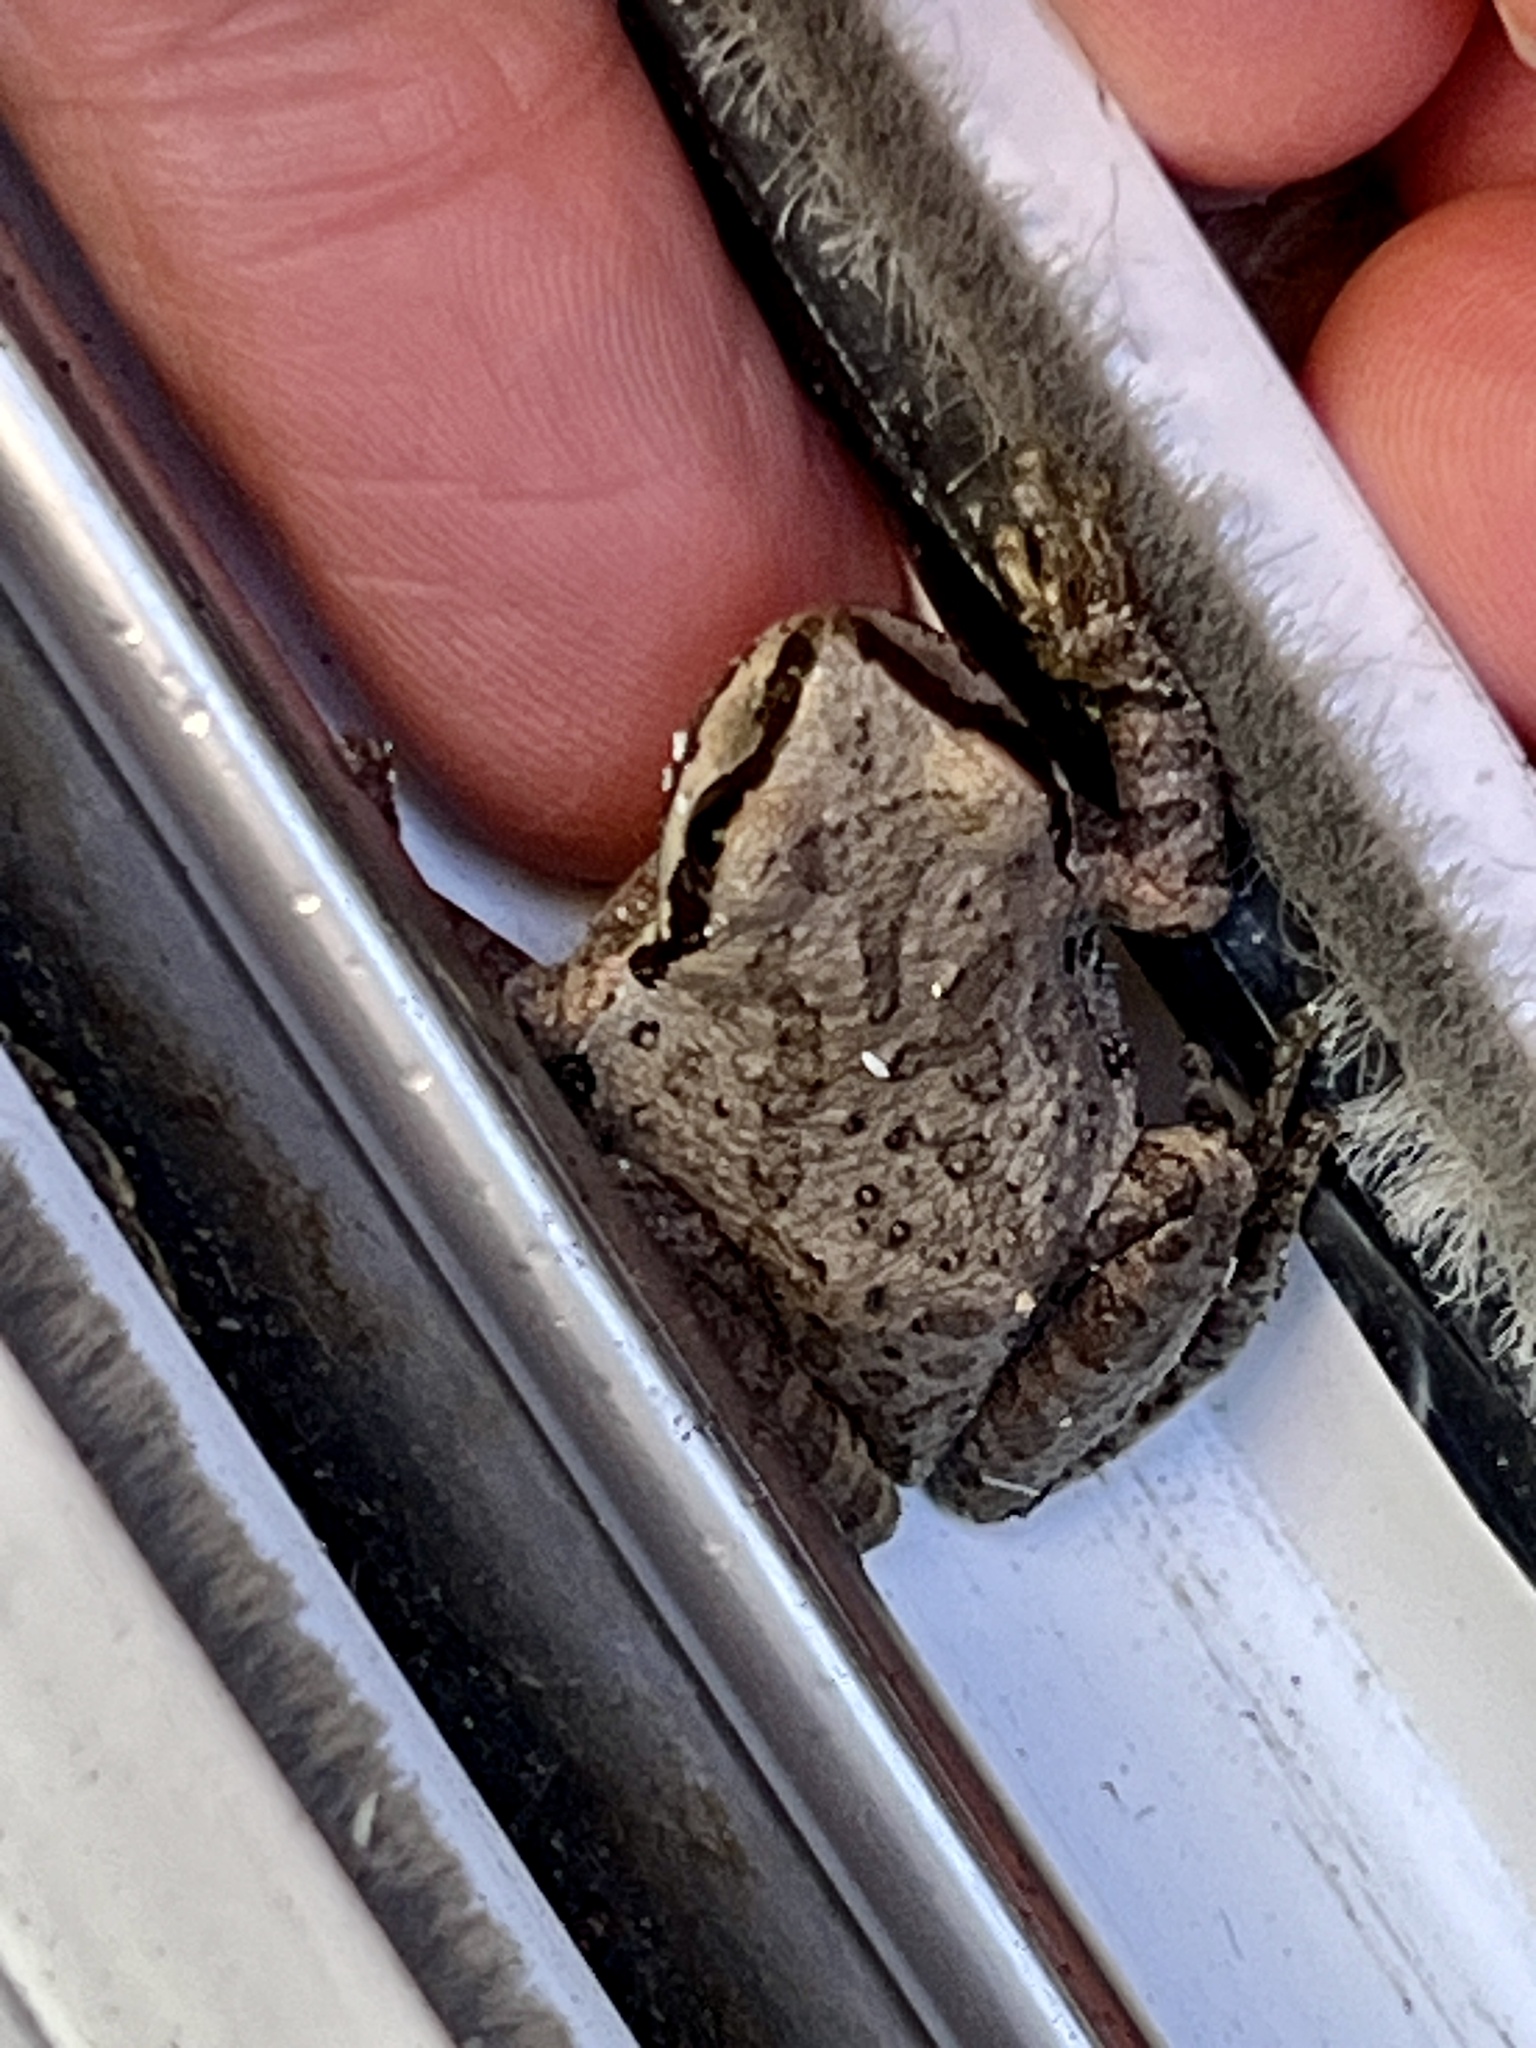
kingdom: Animalia
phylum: Chordata
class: Amphibia
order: Anura
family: Hylidae
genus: Pseudacris
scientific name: Pseudacris regilla
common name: Pacific chorus frog
